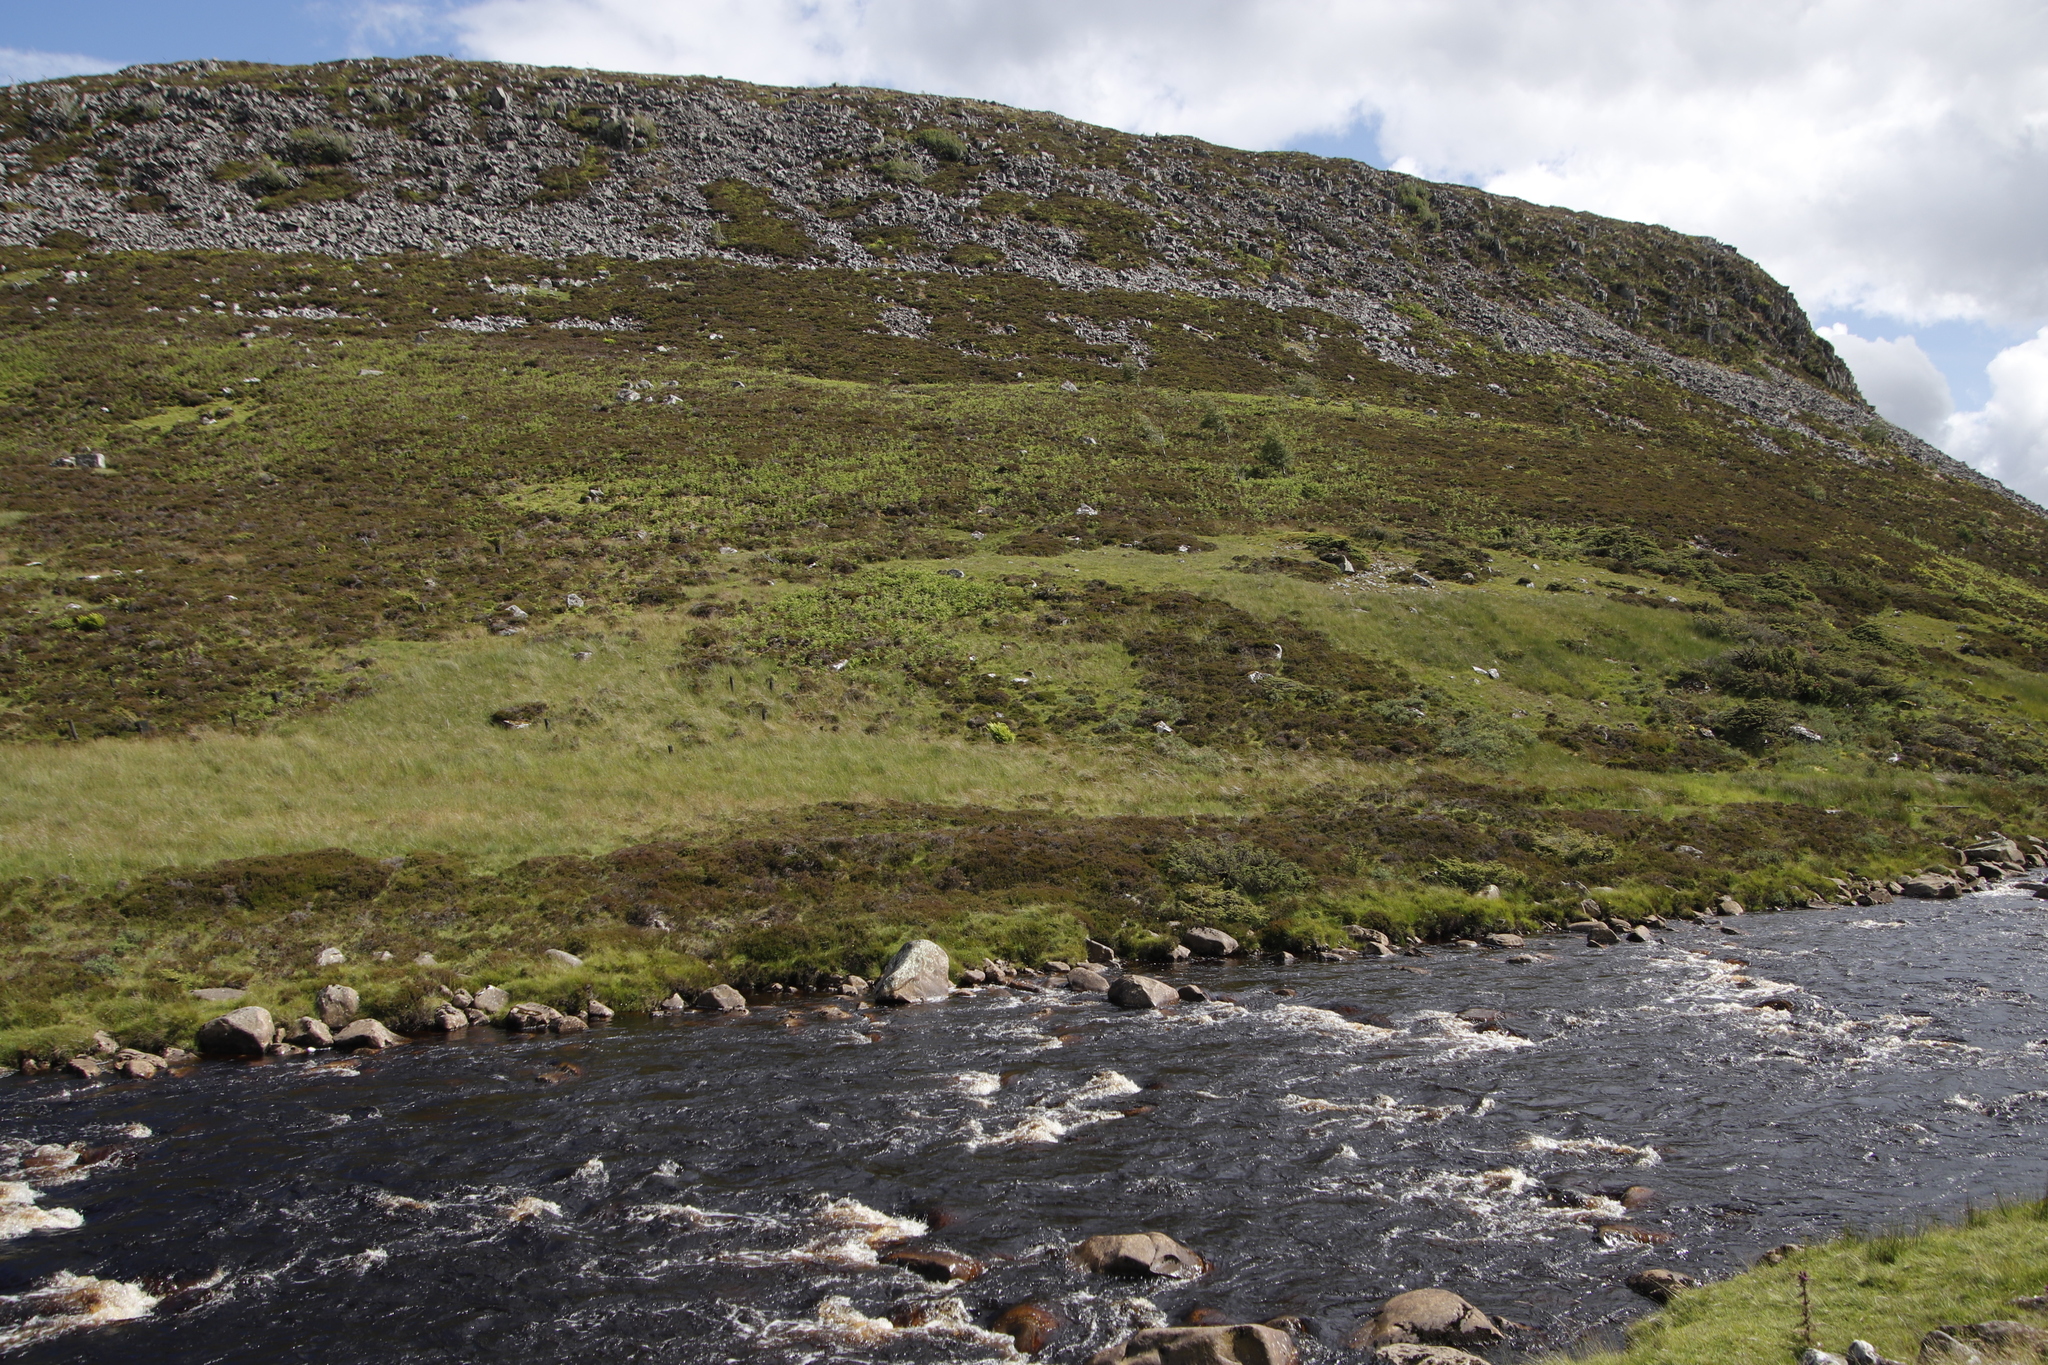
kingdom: Plantae
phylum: Tracheophyta
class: Magnoliopsida
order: Ericales
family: Ericaceae
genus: Calluna
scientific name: Calluna vulgaris
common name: Heather
